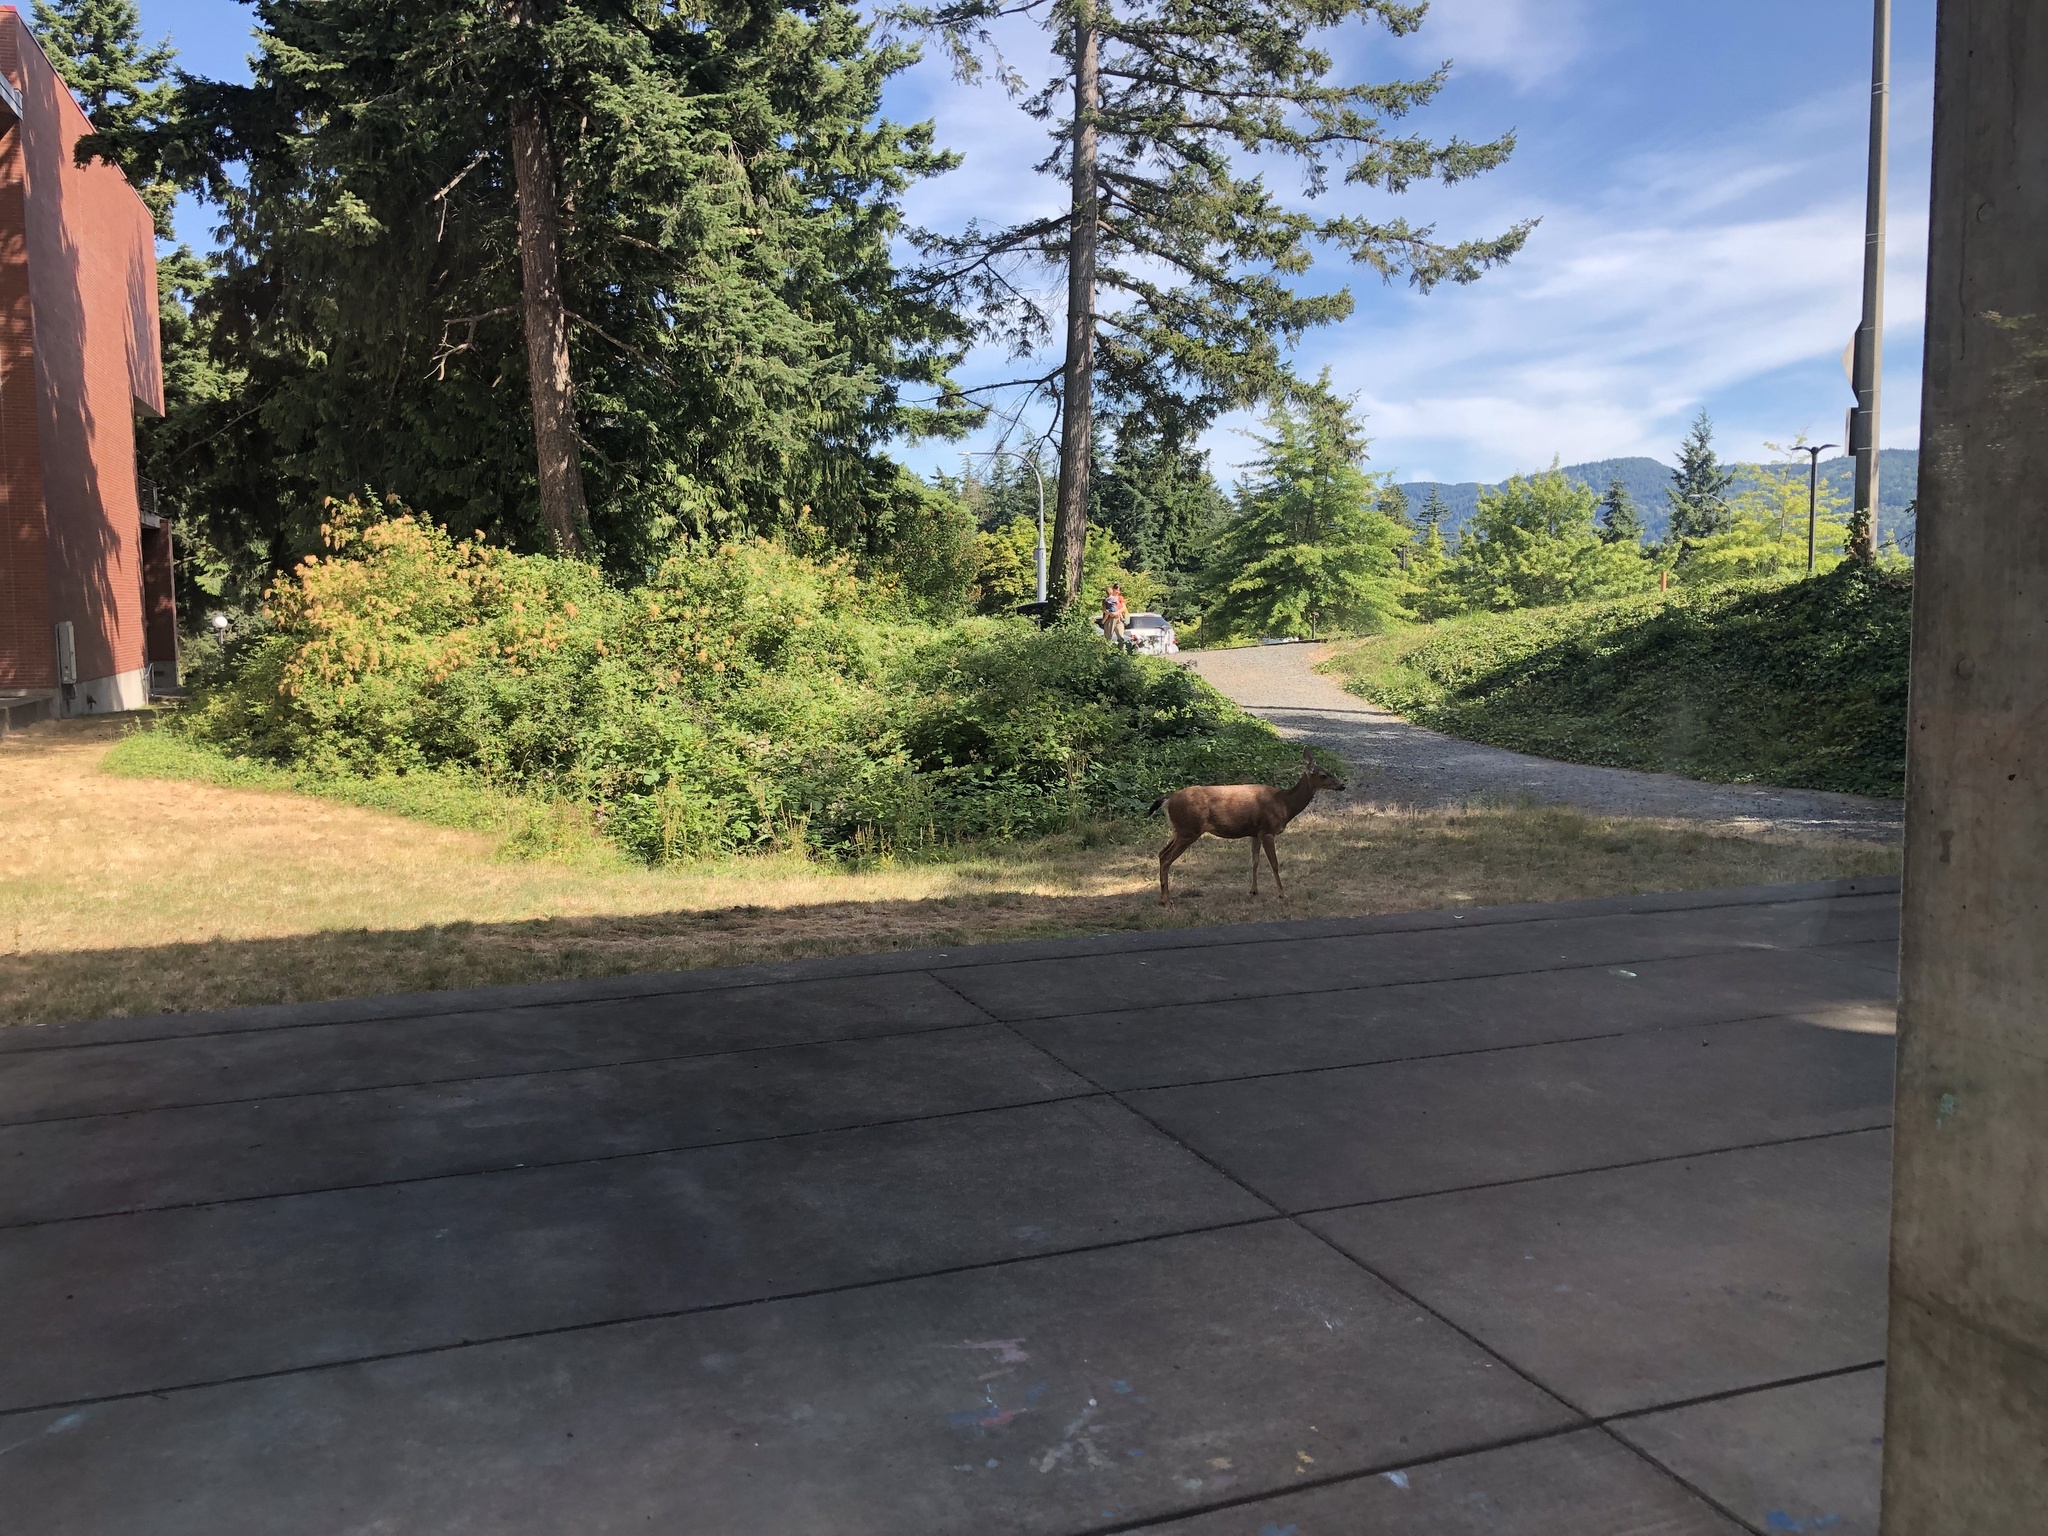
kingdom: Animalia
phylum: Chordata
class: Mammalia
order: Artiodactyla
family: Cervidae
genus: Odocoileus
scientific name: Odocoileus hemionus
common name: Mule deer
